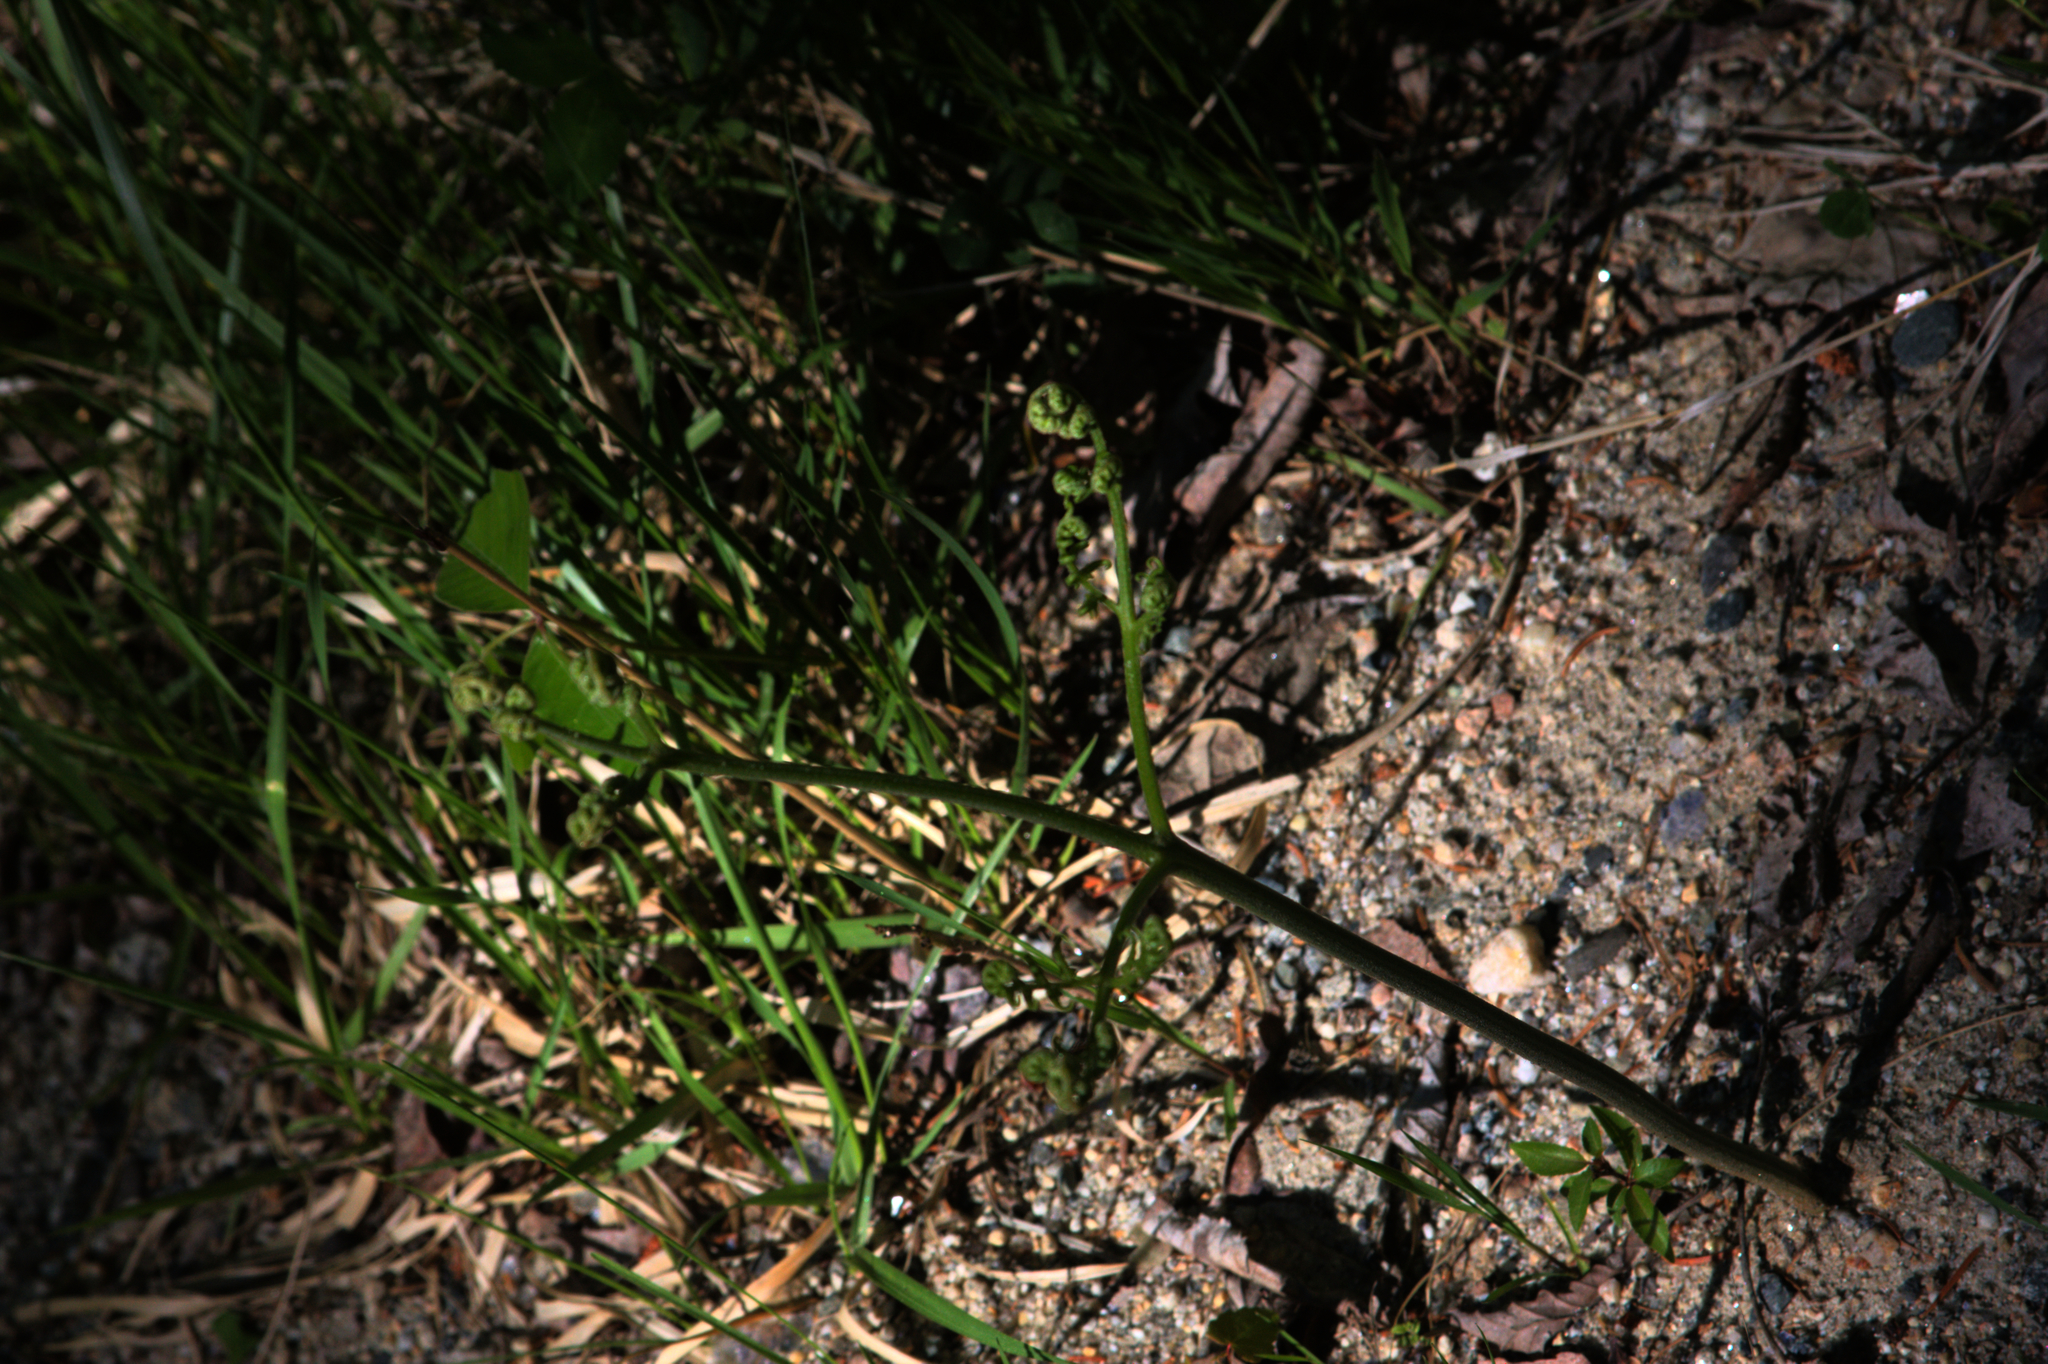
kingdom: Plantae
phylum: Tracheophyta
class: Polypodiopsida
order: Polypodiales
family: Dennstaedtiaceae
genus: Pteridium
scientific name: Pteridium aquilinum
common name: Bracken
